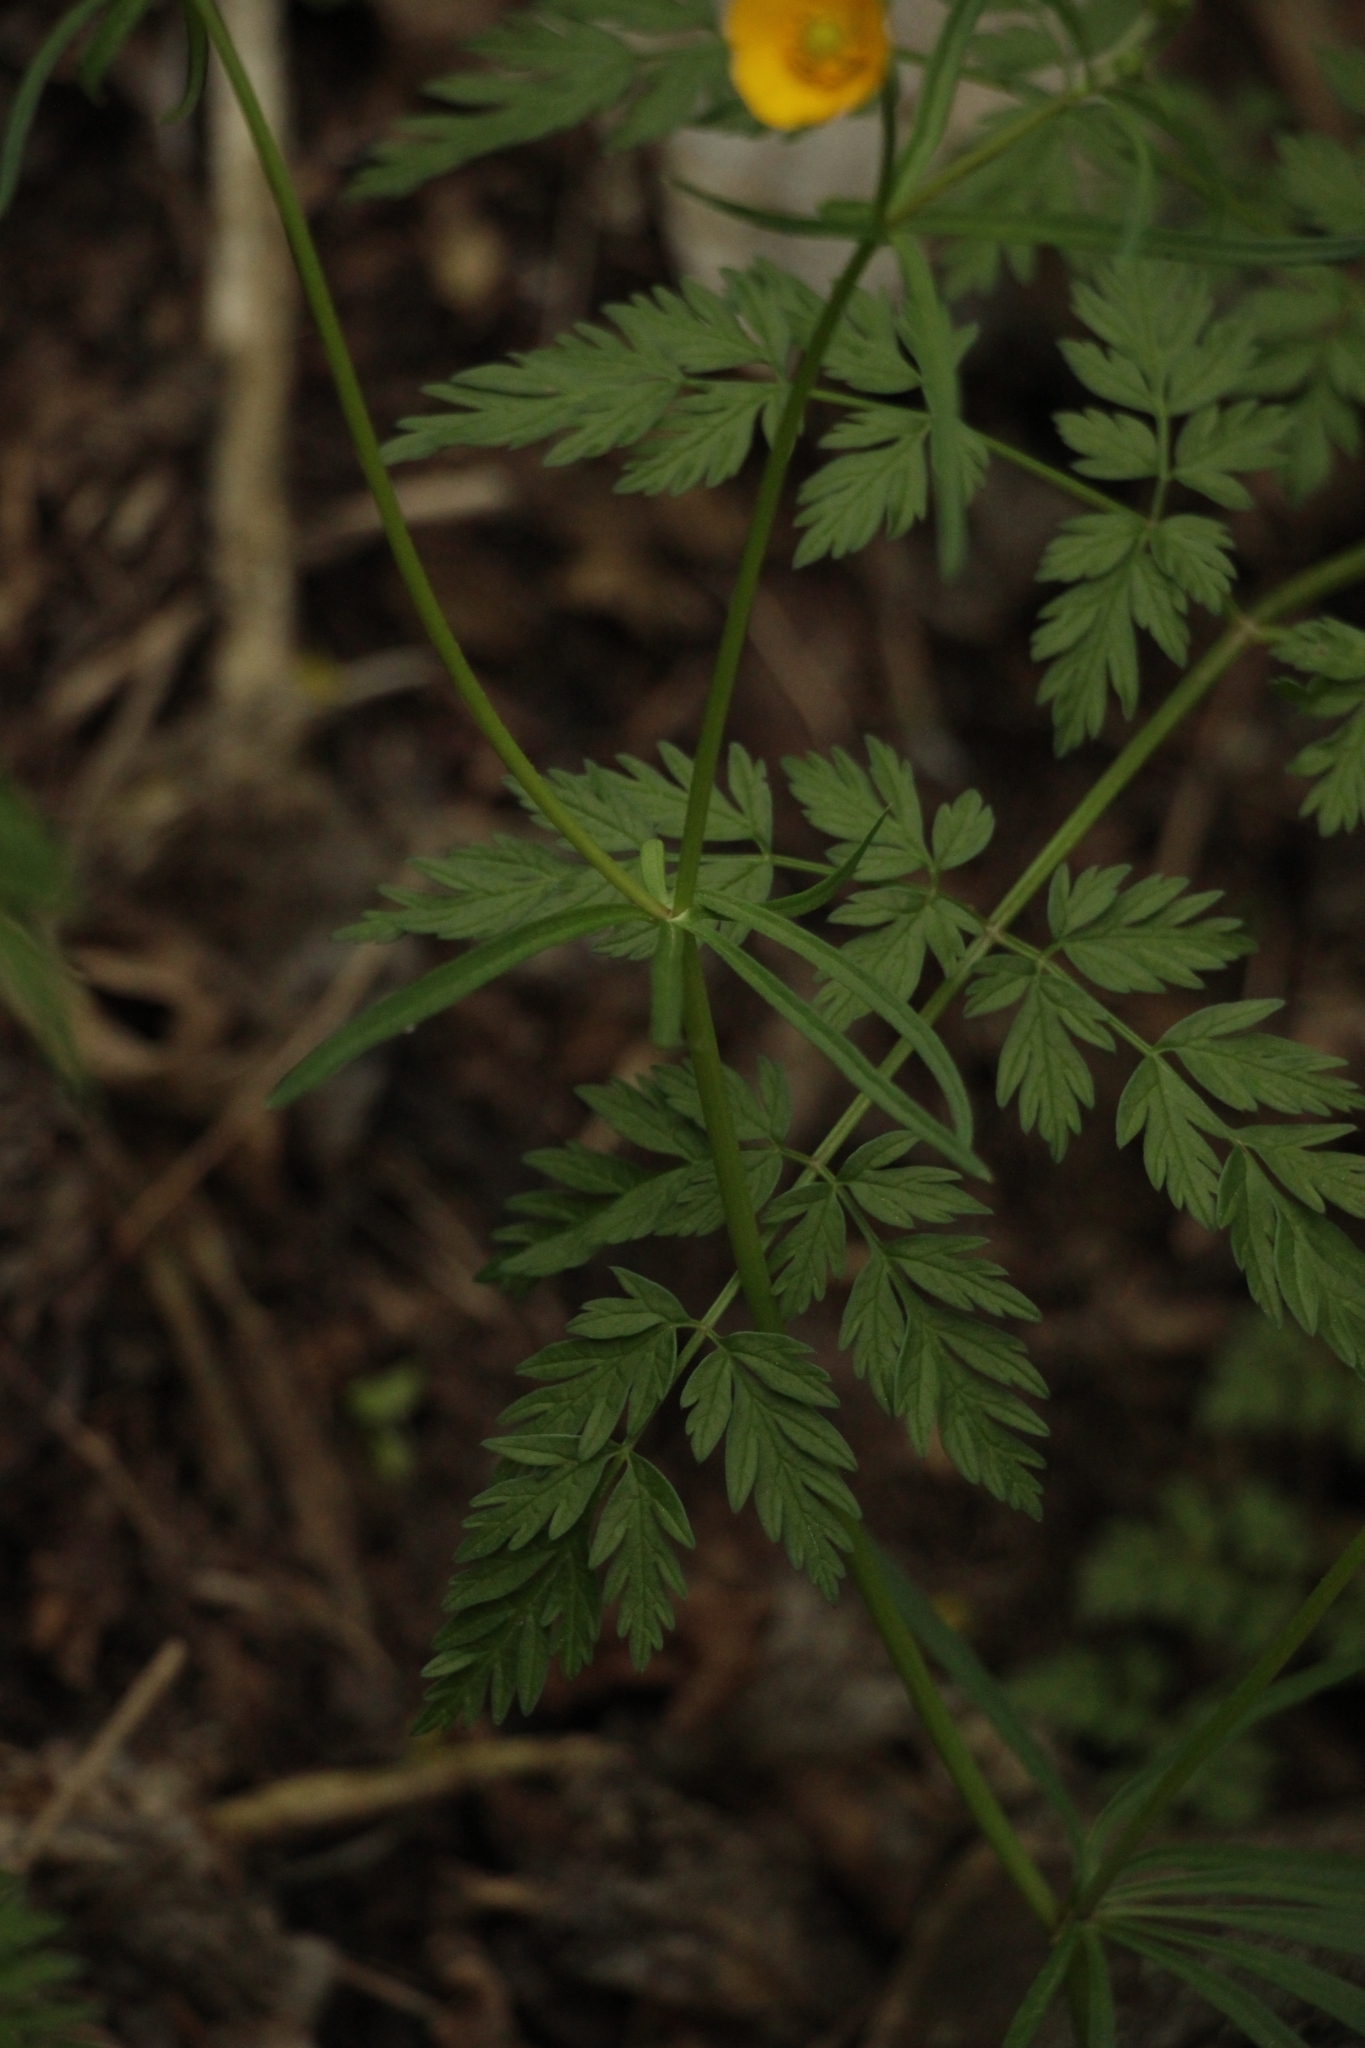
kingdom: Plantae
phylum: Tracheophyta
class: Magnoliopsida
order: Ranunculales
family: Ranunculaceae
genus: Ranunculus
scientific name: Ranunculus auricomus
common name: Goldilocks buttercup
